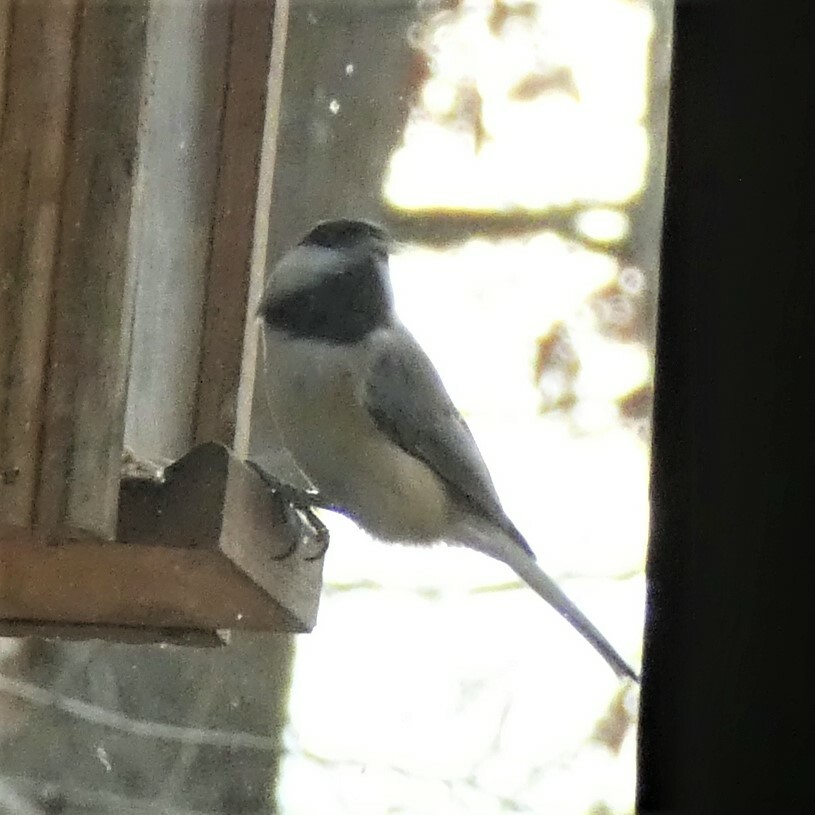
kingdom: Animalia
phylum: Chordata
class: Aves
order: Passeriformes
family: Paridae
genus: Poecile
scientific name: Poecile carolinensis
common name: Carolina chickadee
